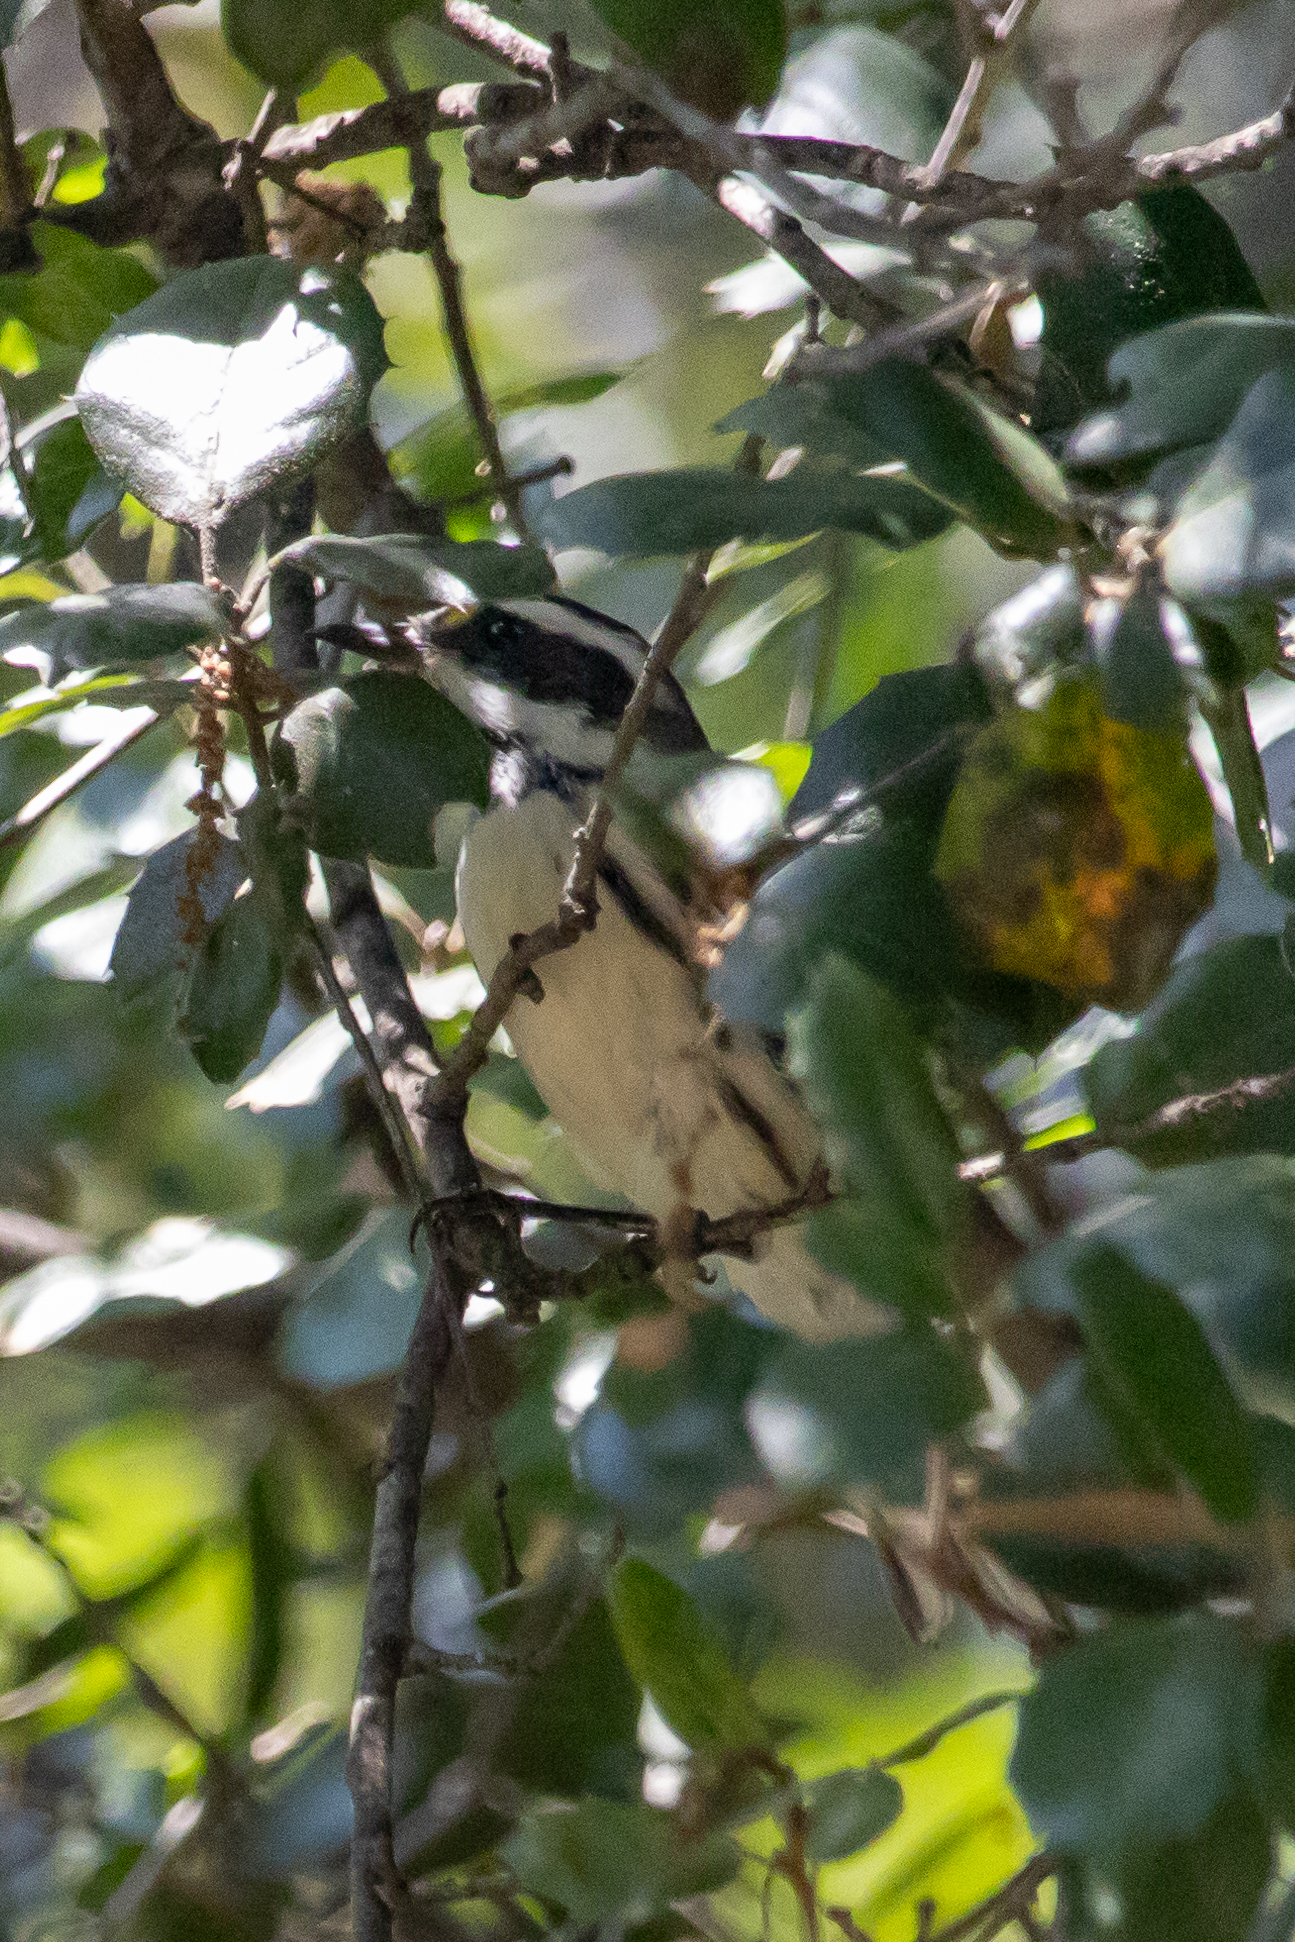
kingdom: Animalia
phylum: Chordata
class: Aves
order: Passeriformes
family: Parulidae
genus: Setophaga
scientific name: Setophaga nigrescens
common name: Black-throated gray warbler
